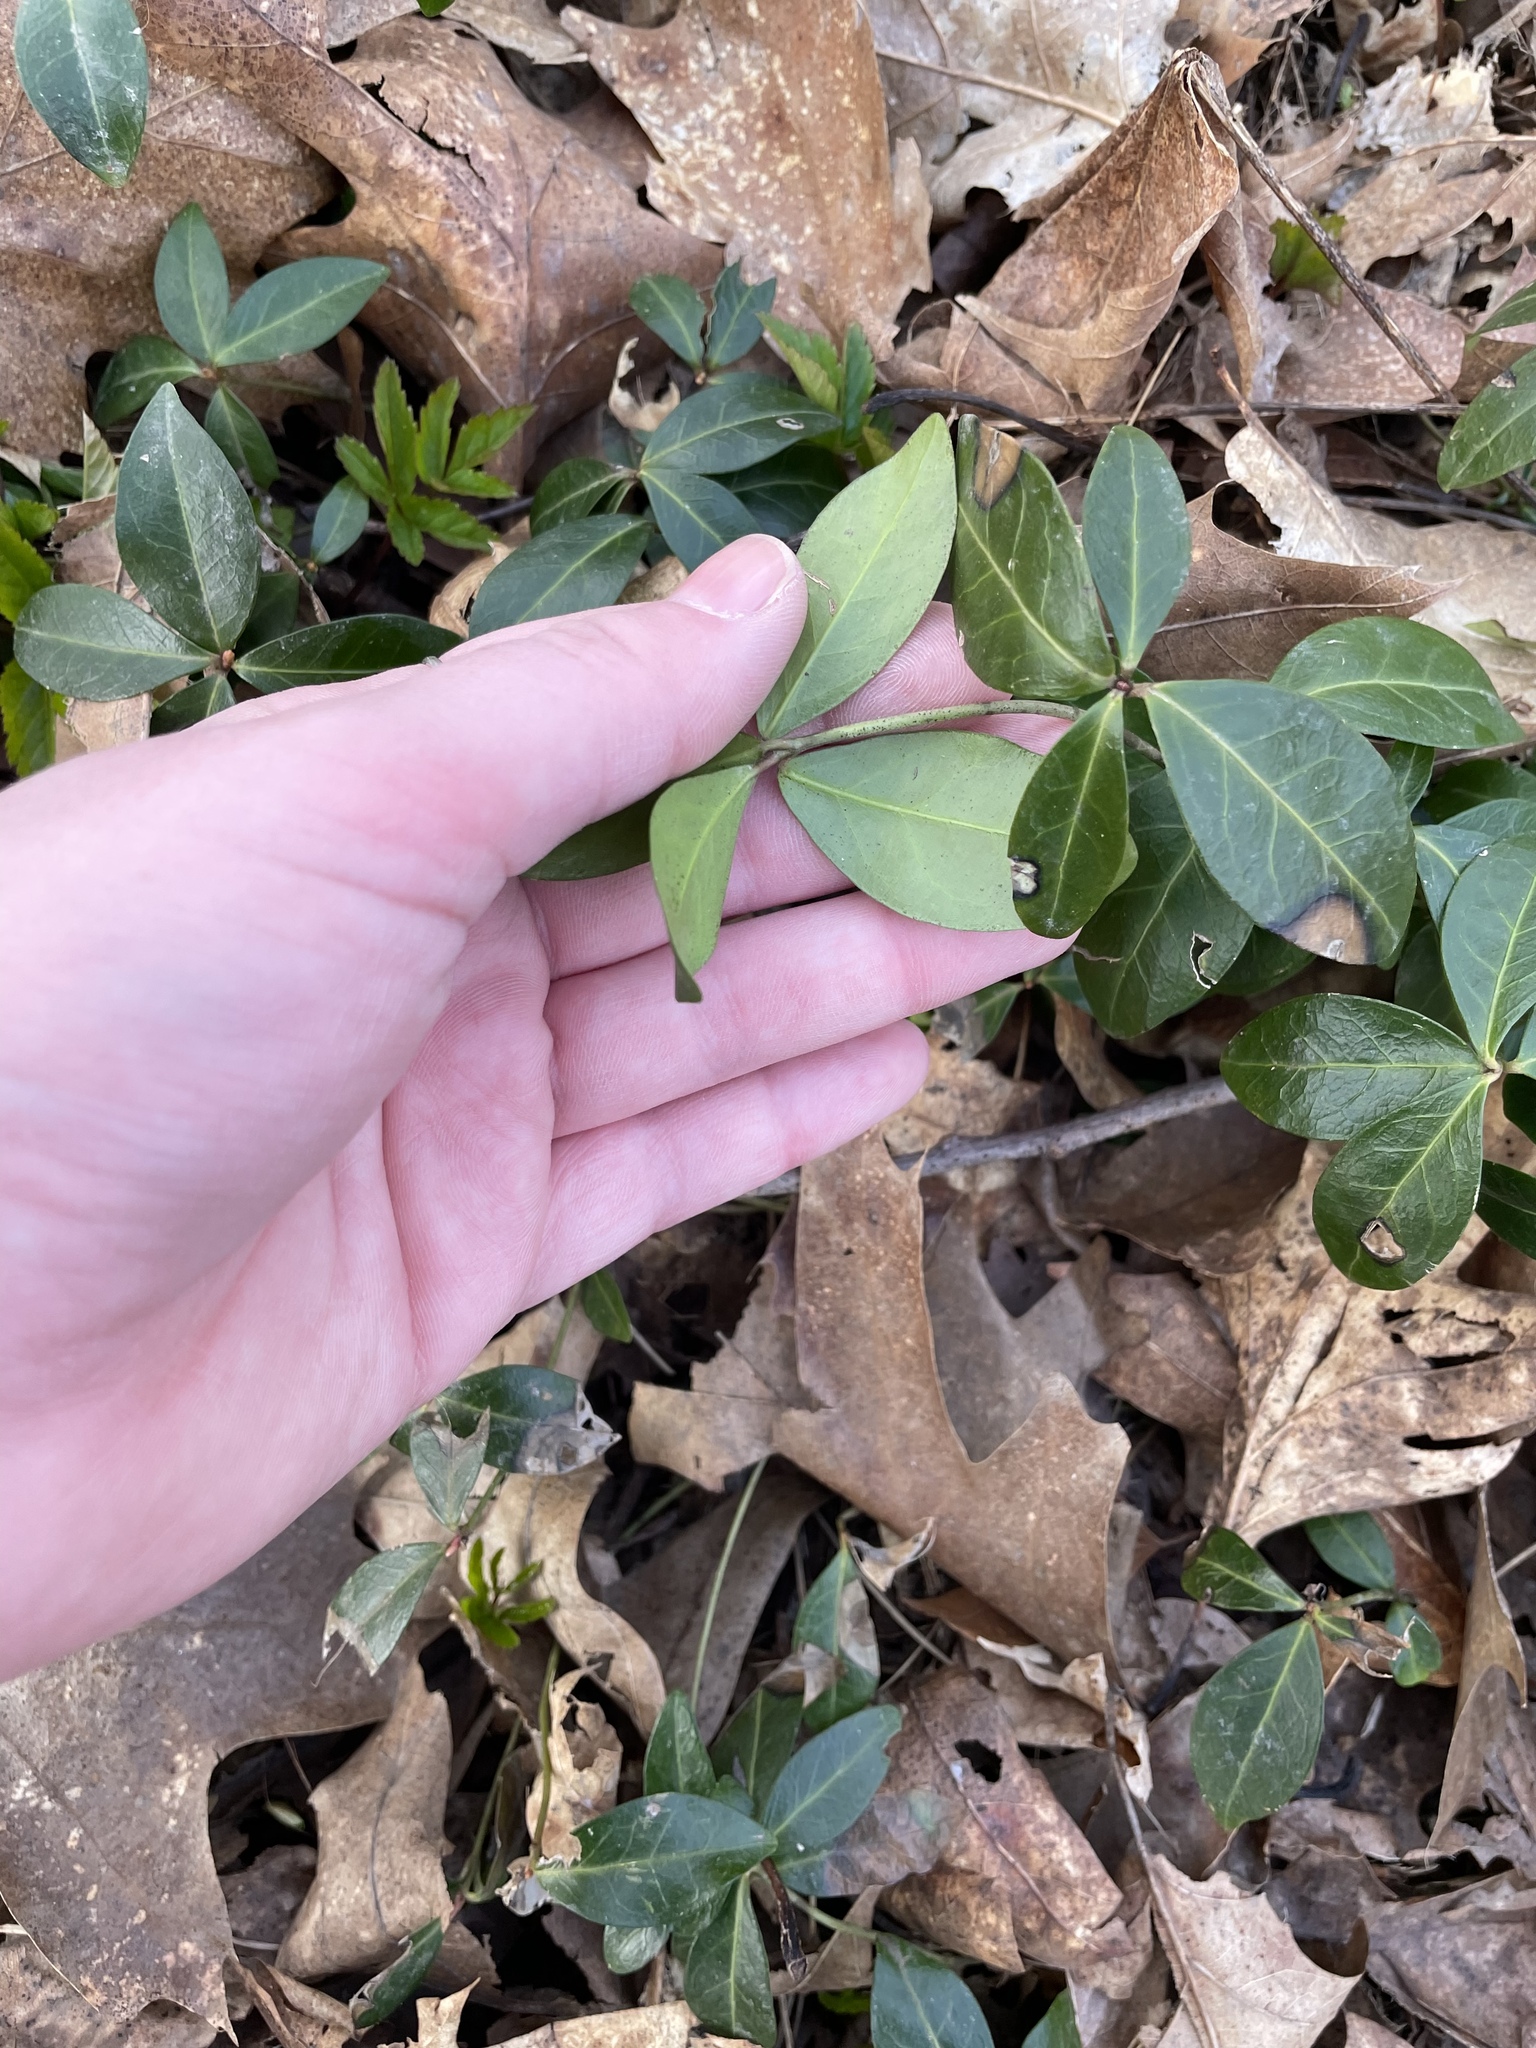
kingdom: Plantae
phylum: Tracheophyta
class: Magnoliopsida
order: Gentianales
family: Apocynaceae
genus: Vinca
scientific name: Vinca minor
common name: Lesser periwinkle
